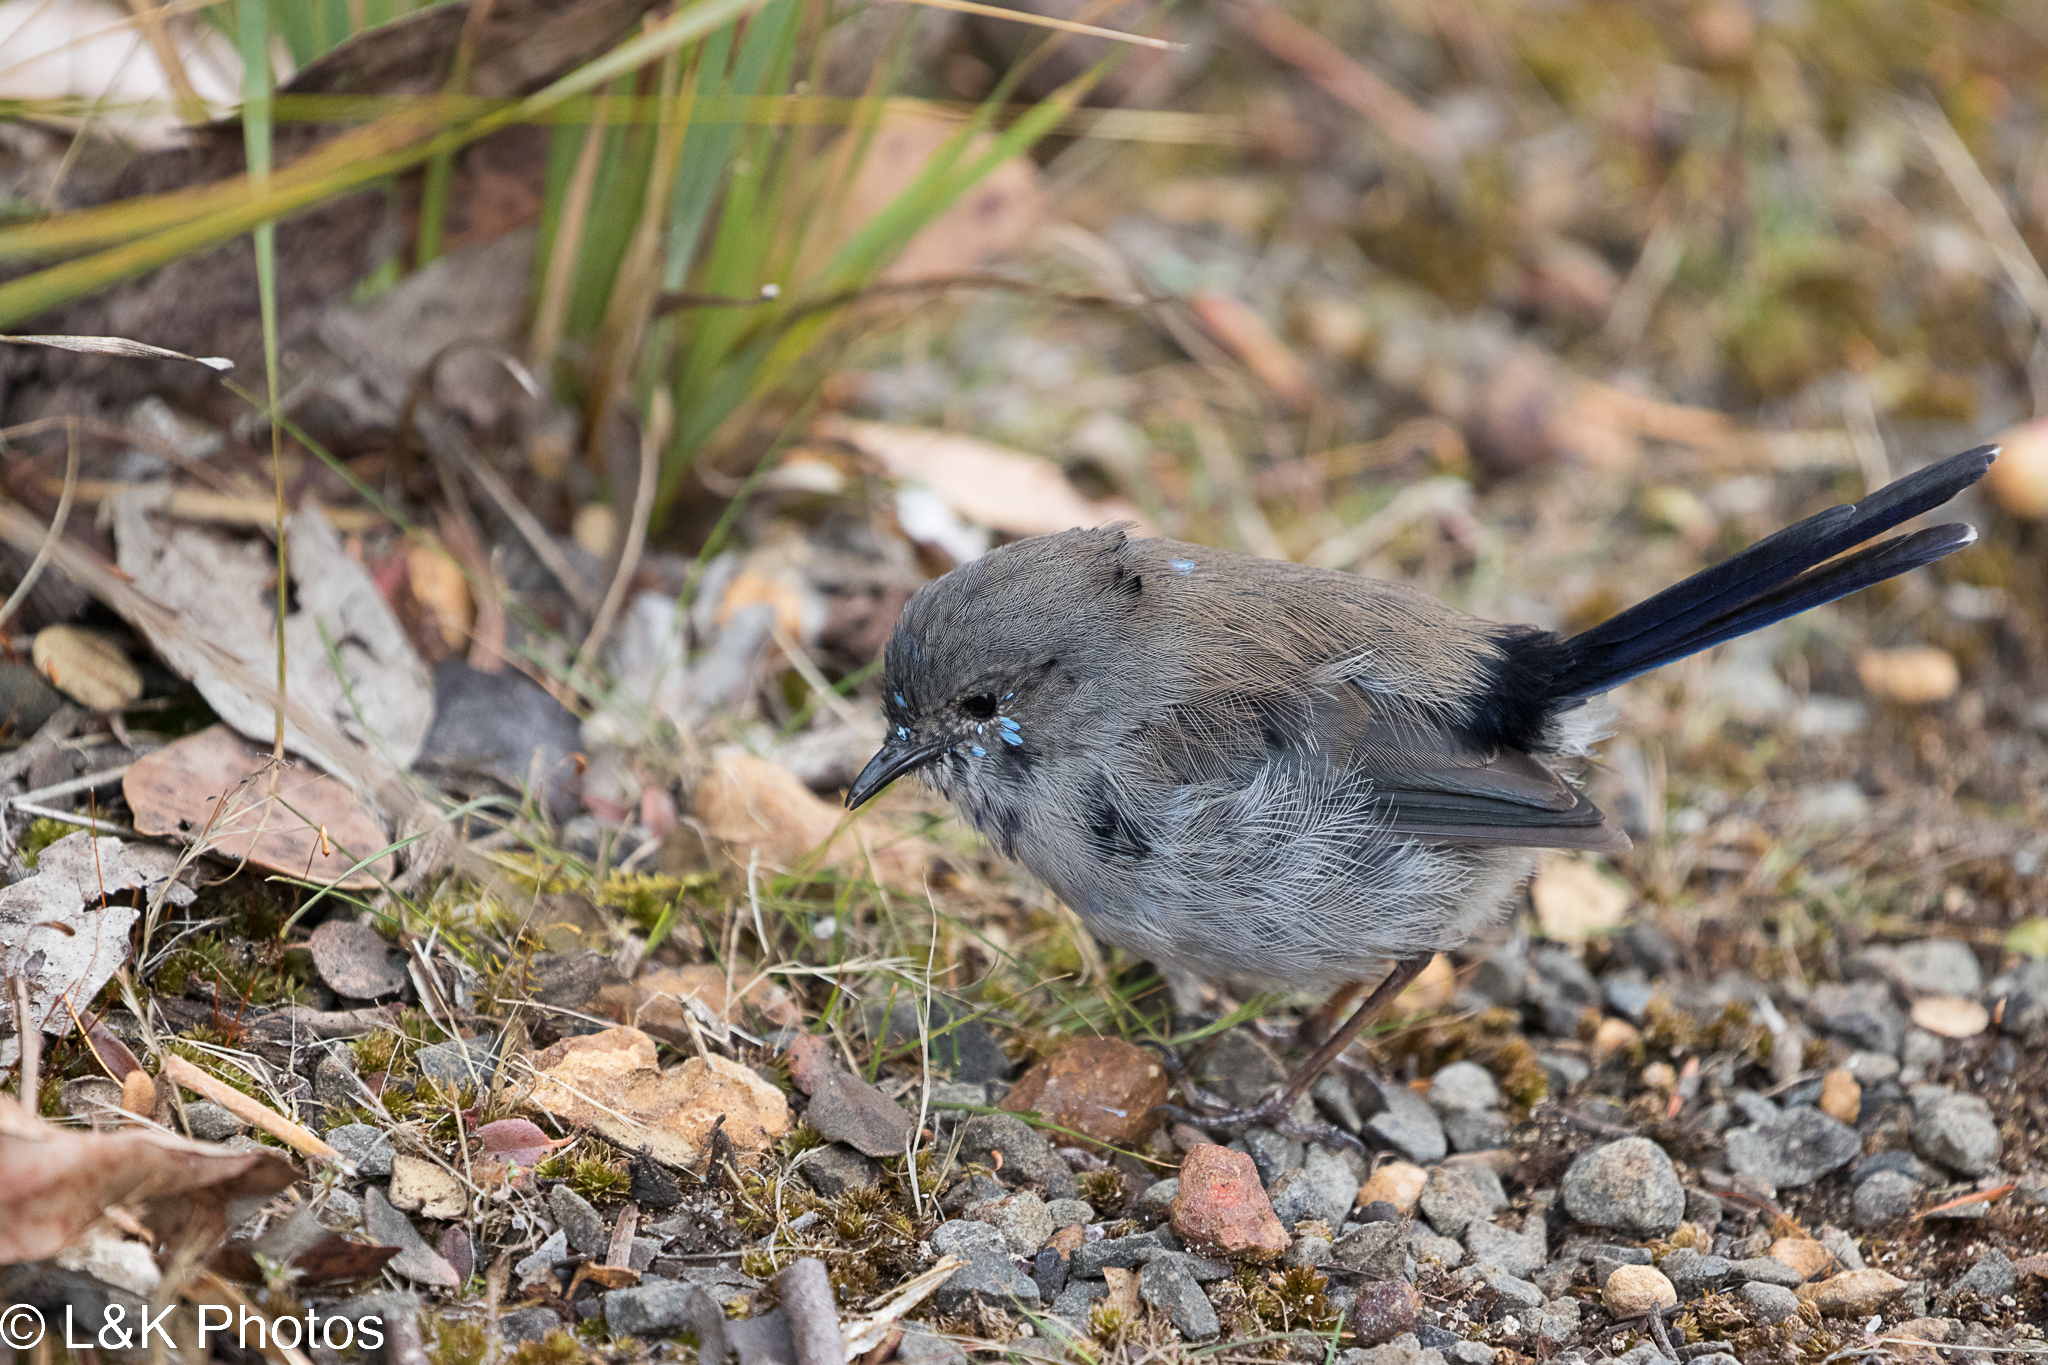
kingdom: Animalia
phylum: Chordata
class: Aves
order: Passeriformes
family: Maluridae
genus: Malurus
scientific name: Malurus cyaneus
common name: Superb fairywren
